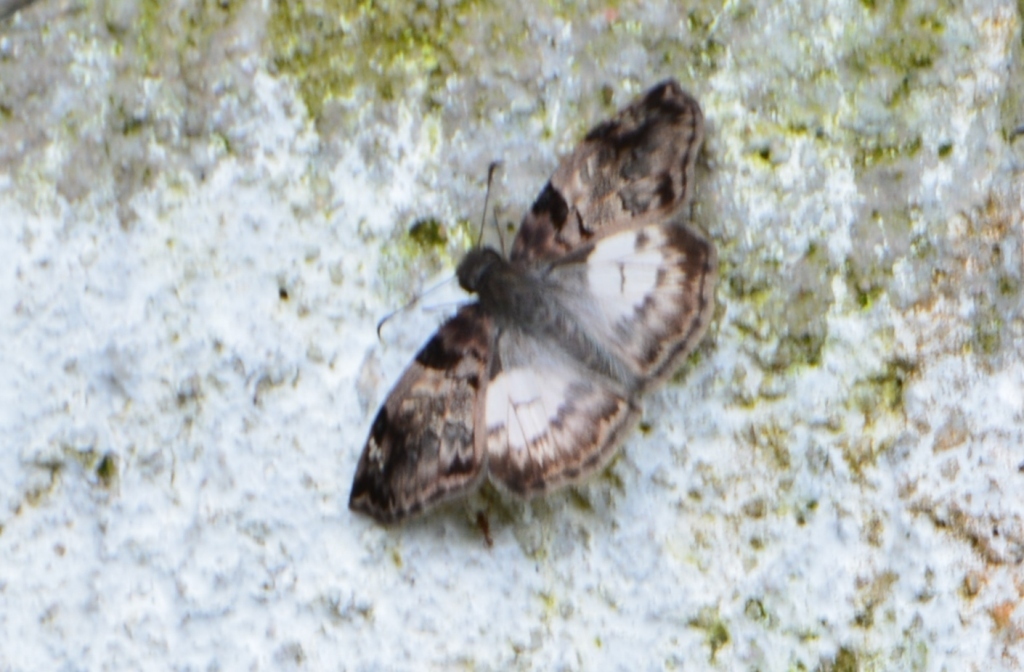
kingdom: Animalia
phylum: Arthropoda
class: Insecta
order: Lepidoptera
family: Hesperiidae
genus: Mylon
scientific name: Mylon lassia
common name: Bold mylon
